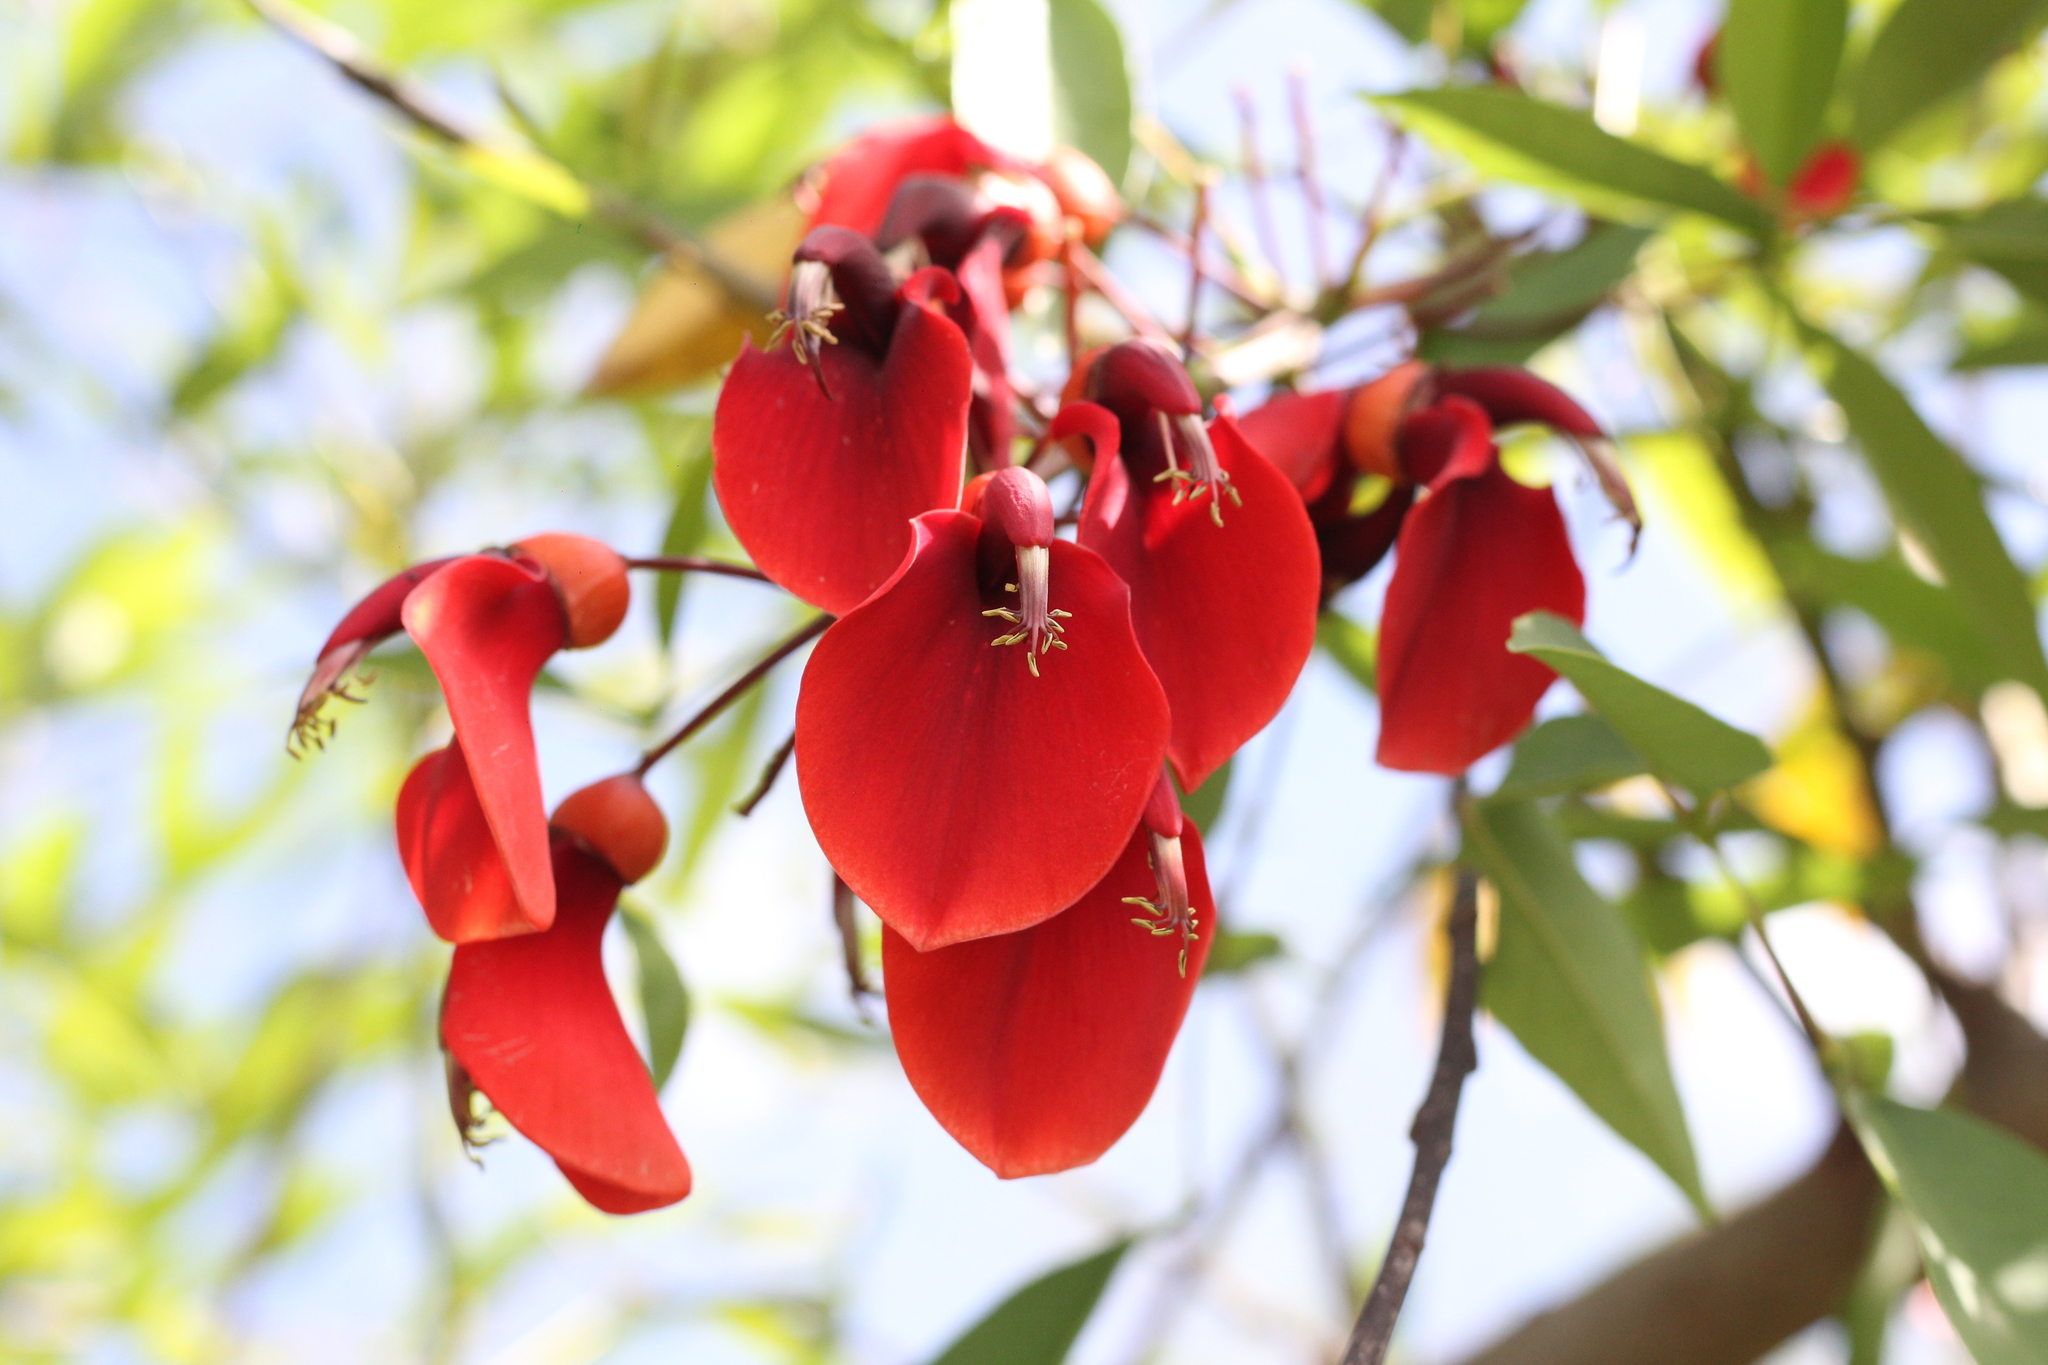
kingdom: Plantae
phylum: Tracheophyta
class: Magnoliopsida
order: Fabales
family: Fabaceae
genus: Erythrina
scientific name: Erythrina crista-galli
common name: Cockspur coral tree
